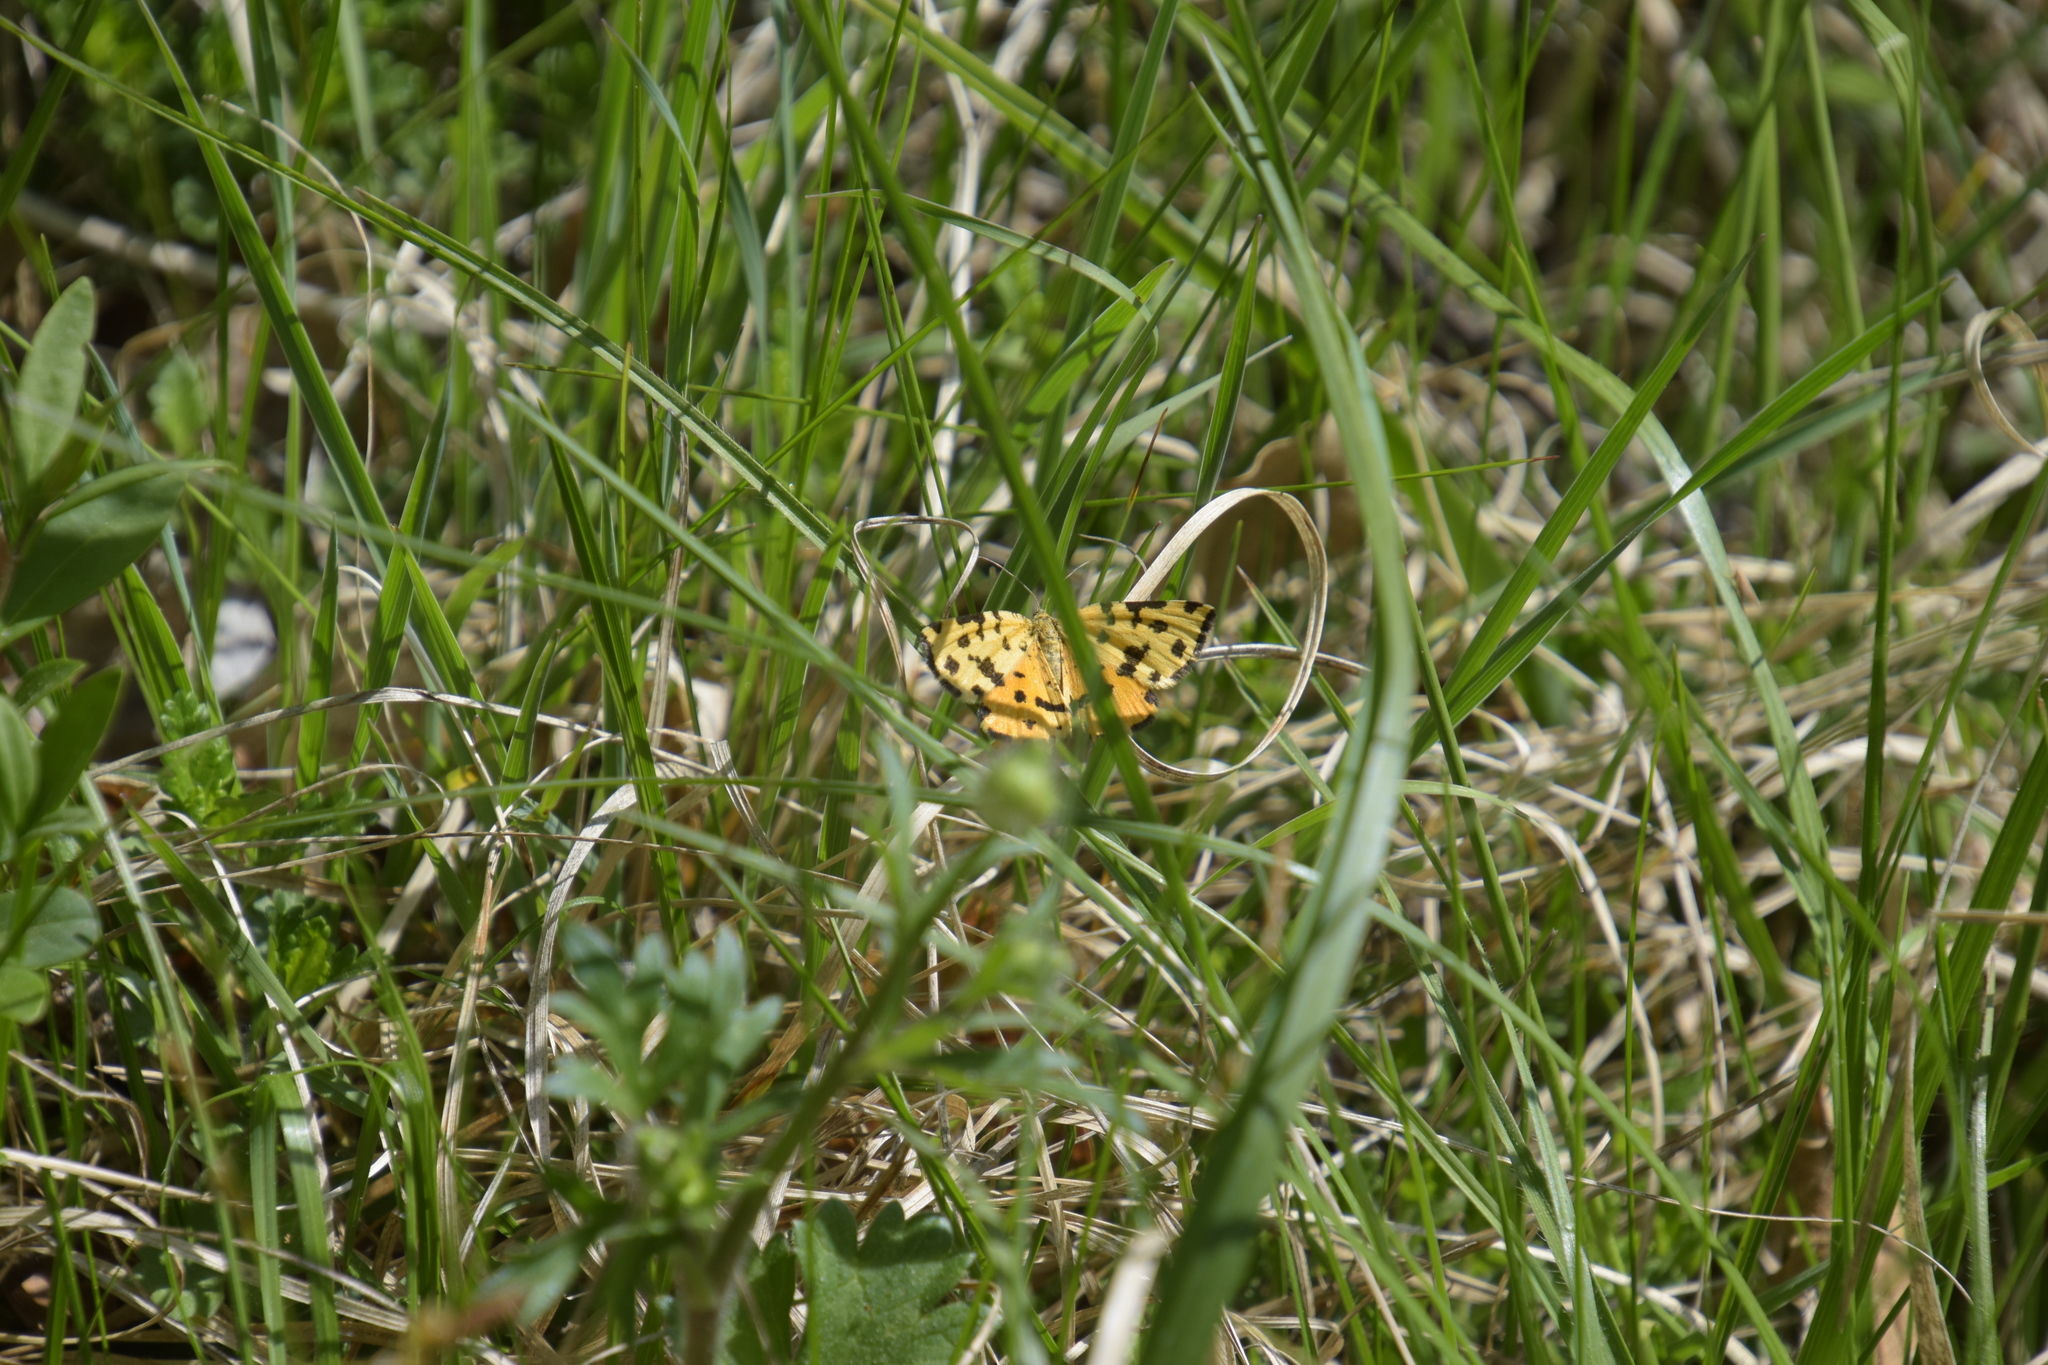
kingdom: Animalia
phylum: Arthropoda
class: Insecta
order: Lepidoptera
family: Geometridae
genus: Pseudopanthera
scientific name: Pseudopanthera macularia
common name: Speckled yellow
